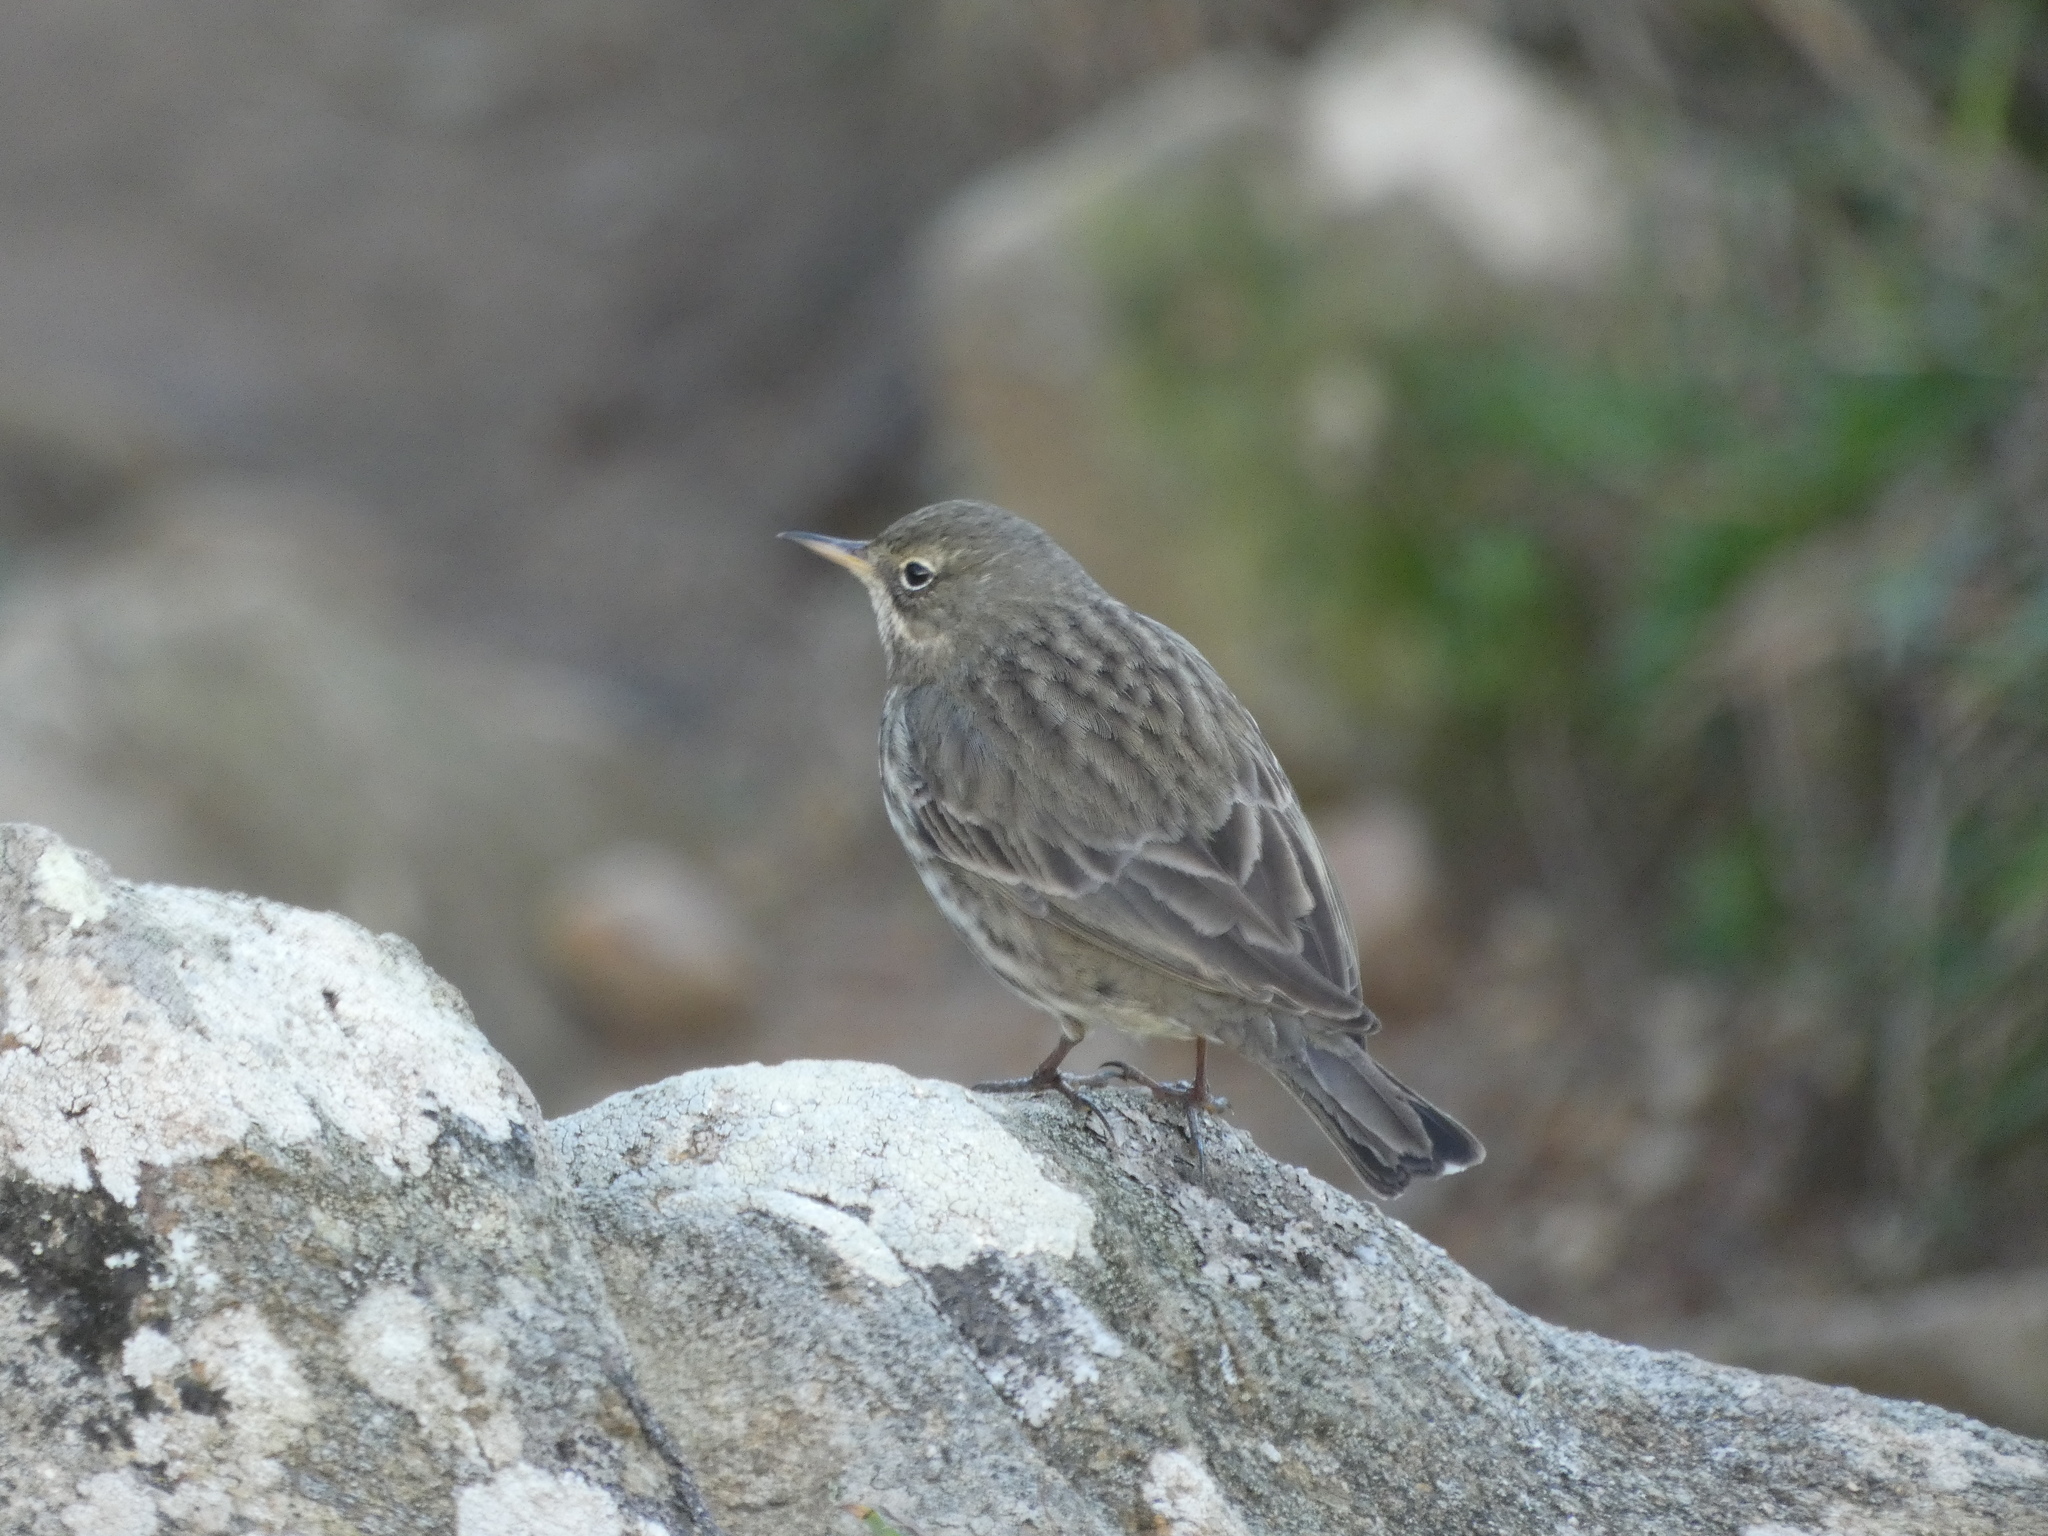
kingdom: Animalia
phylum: Chordata
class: Aves
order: Passeriformes
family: Motacillidae
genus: Anthus
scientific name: Anthus petrosus
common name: Eurasian rock pipit
